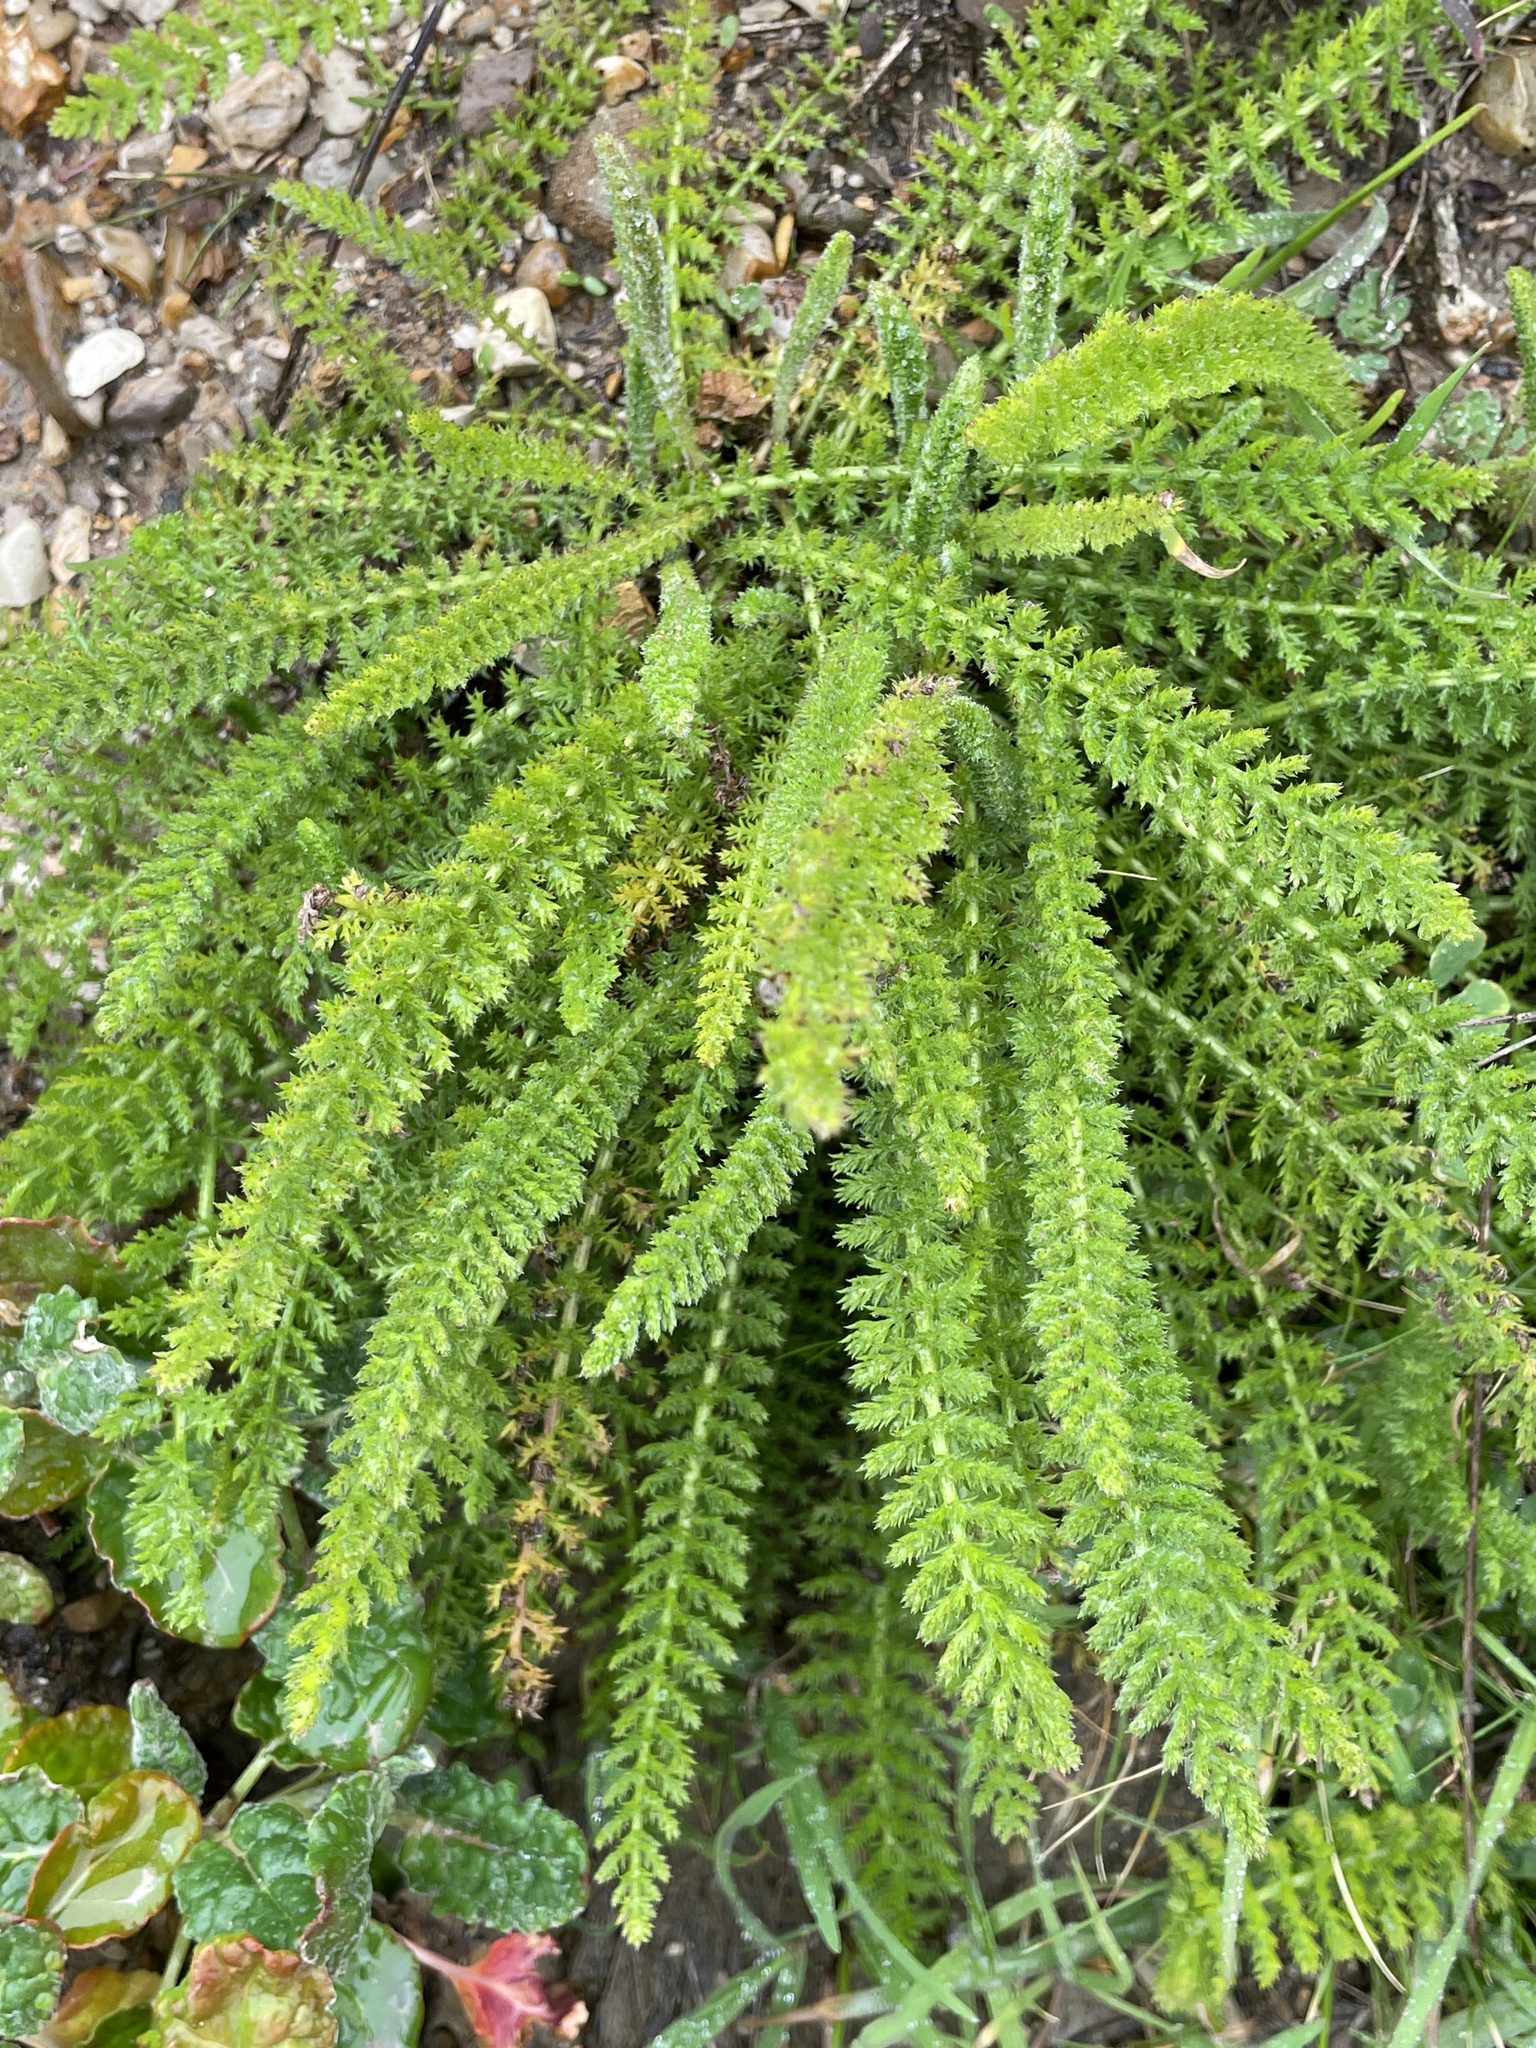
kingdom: Plantae
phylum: Tracheophyta
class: Magnoliopsida
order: Asterales
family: Asteraceae
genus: Achillea
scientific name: Achillea millefolium
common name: Yarrow
